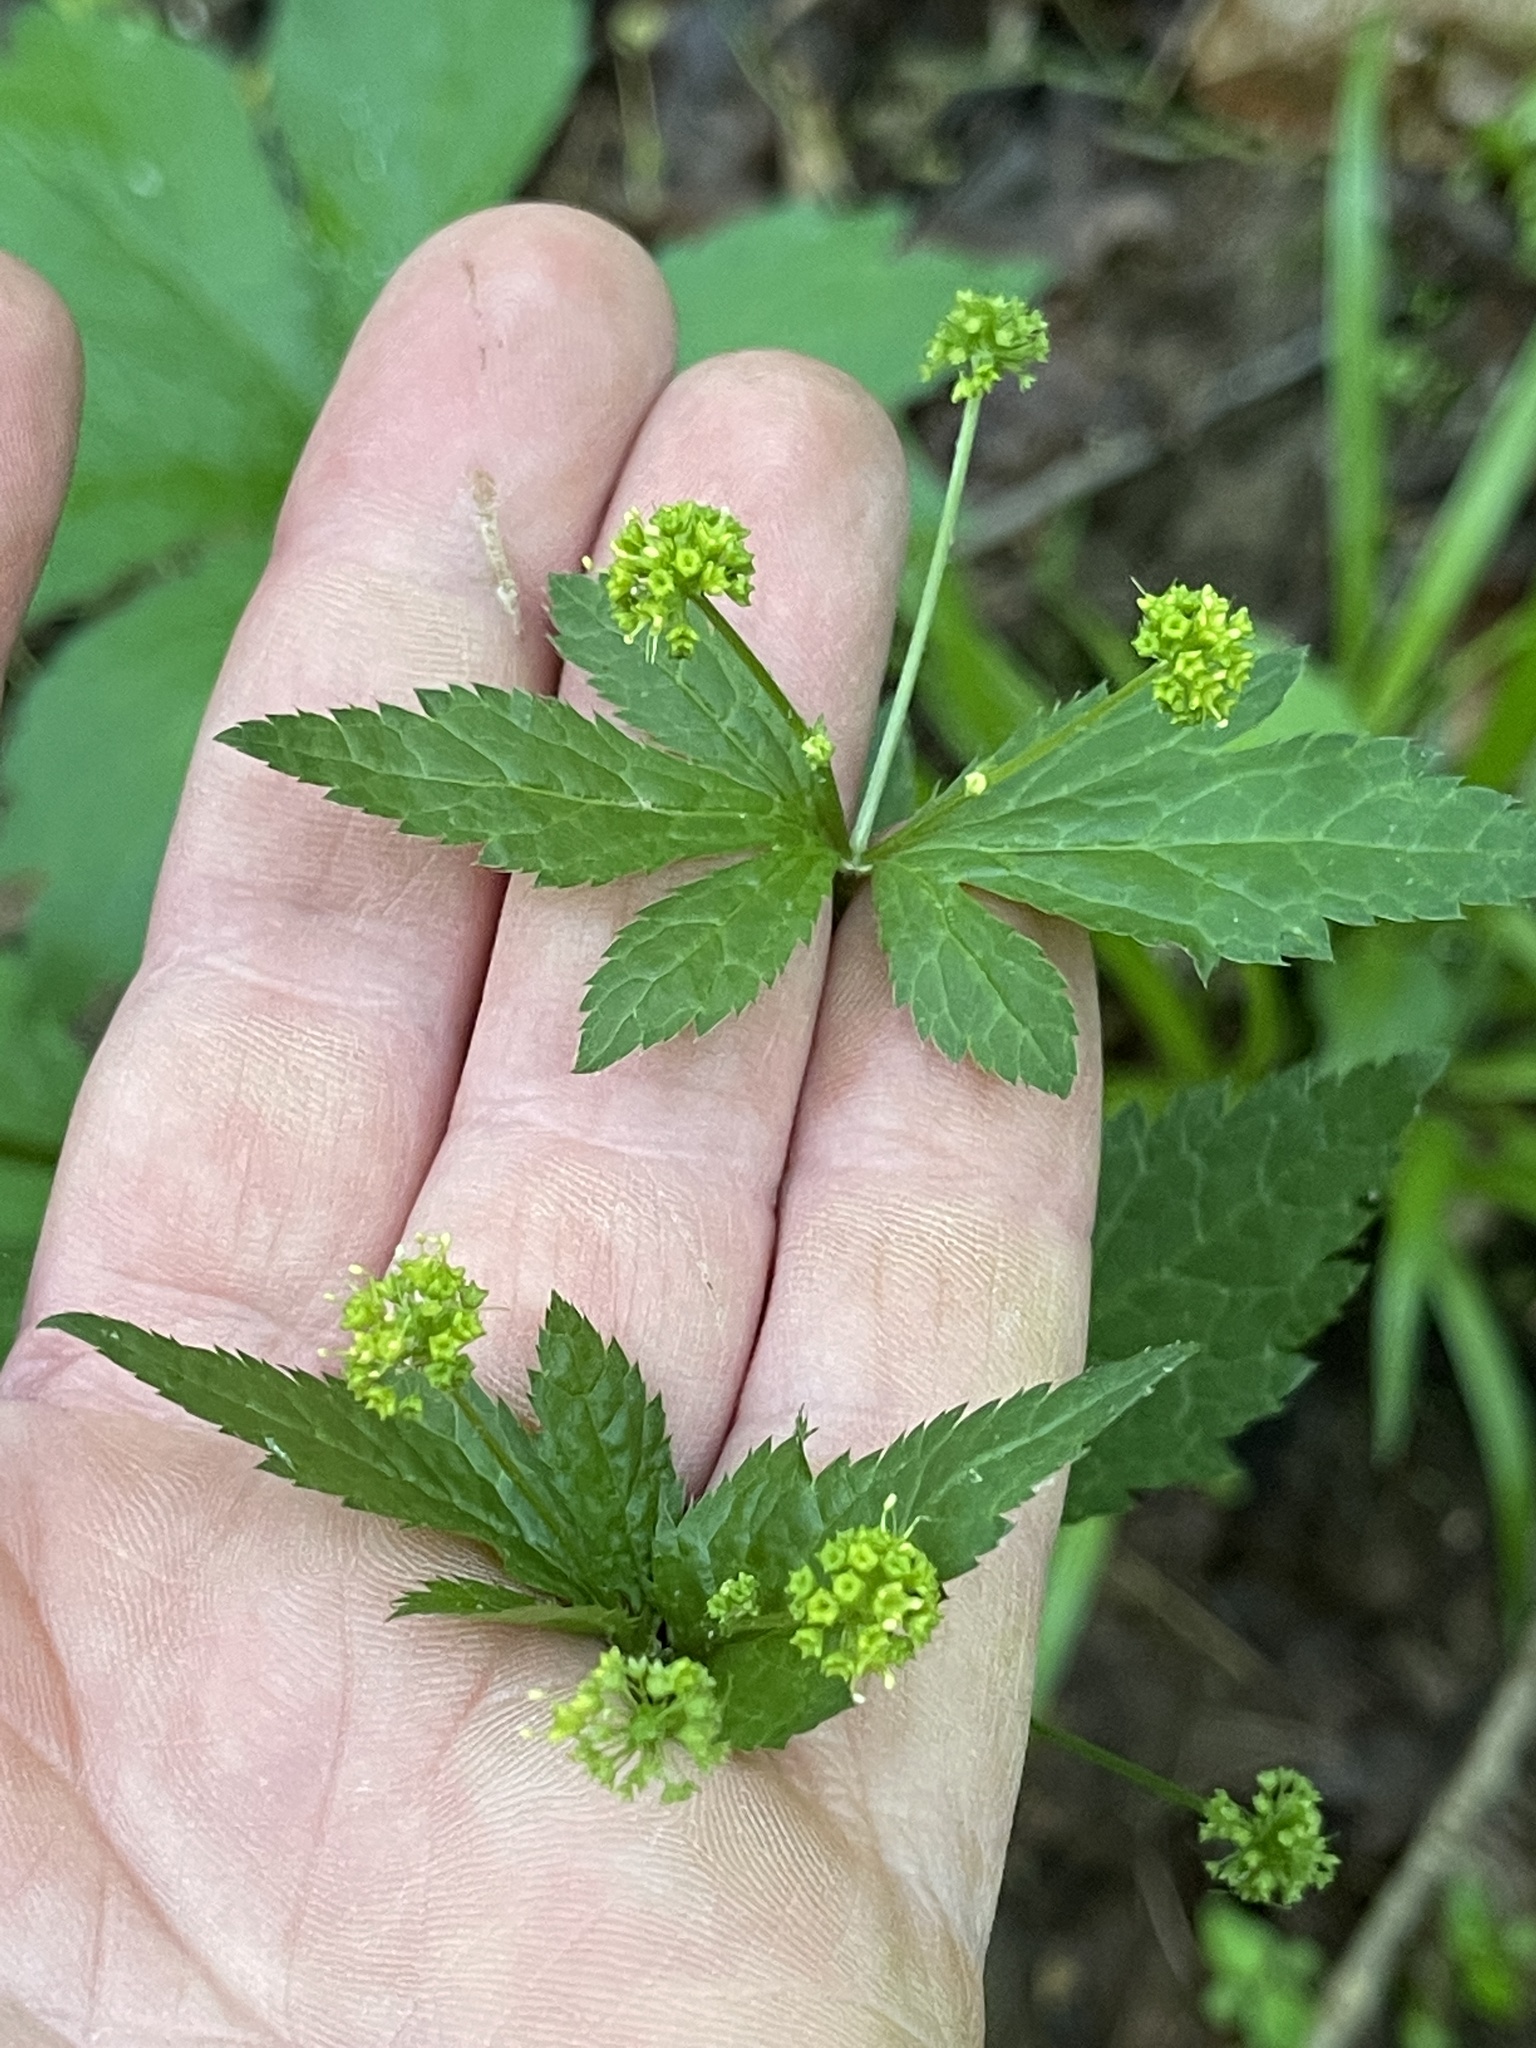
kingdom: Plantae
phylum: Tracheophyta
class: Magnoliopsida
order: Apiales
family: Apiaceae
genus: Sanicula
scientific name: Sanicula odorata
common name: Cluster sanicle
